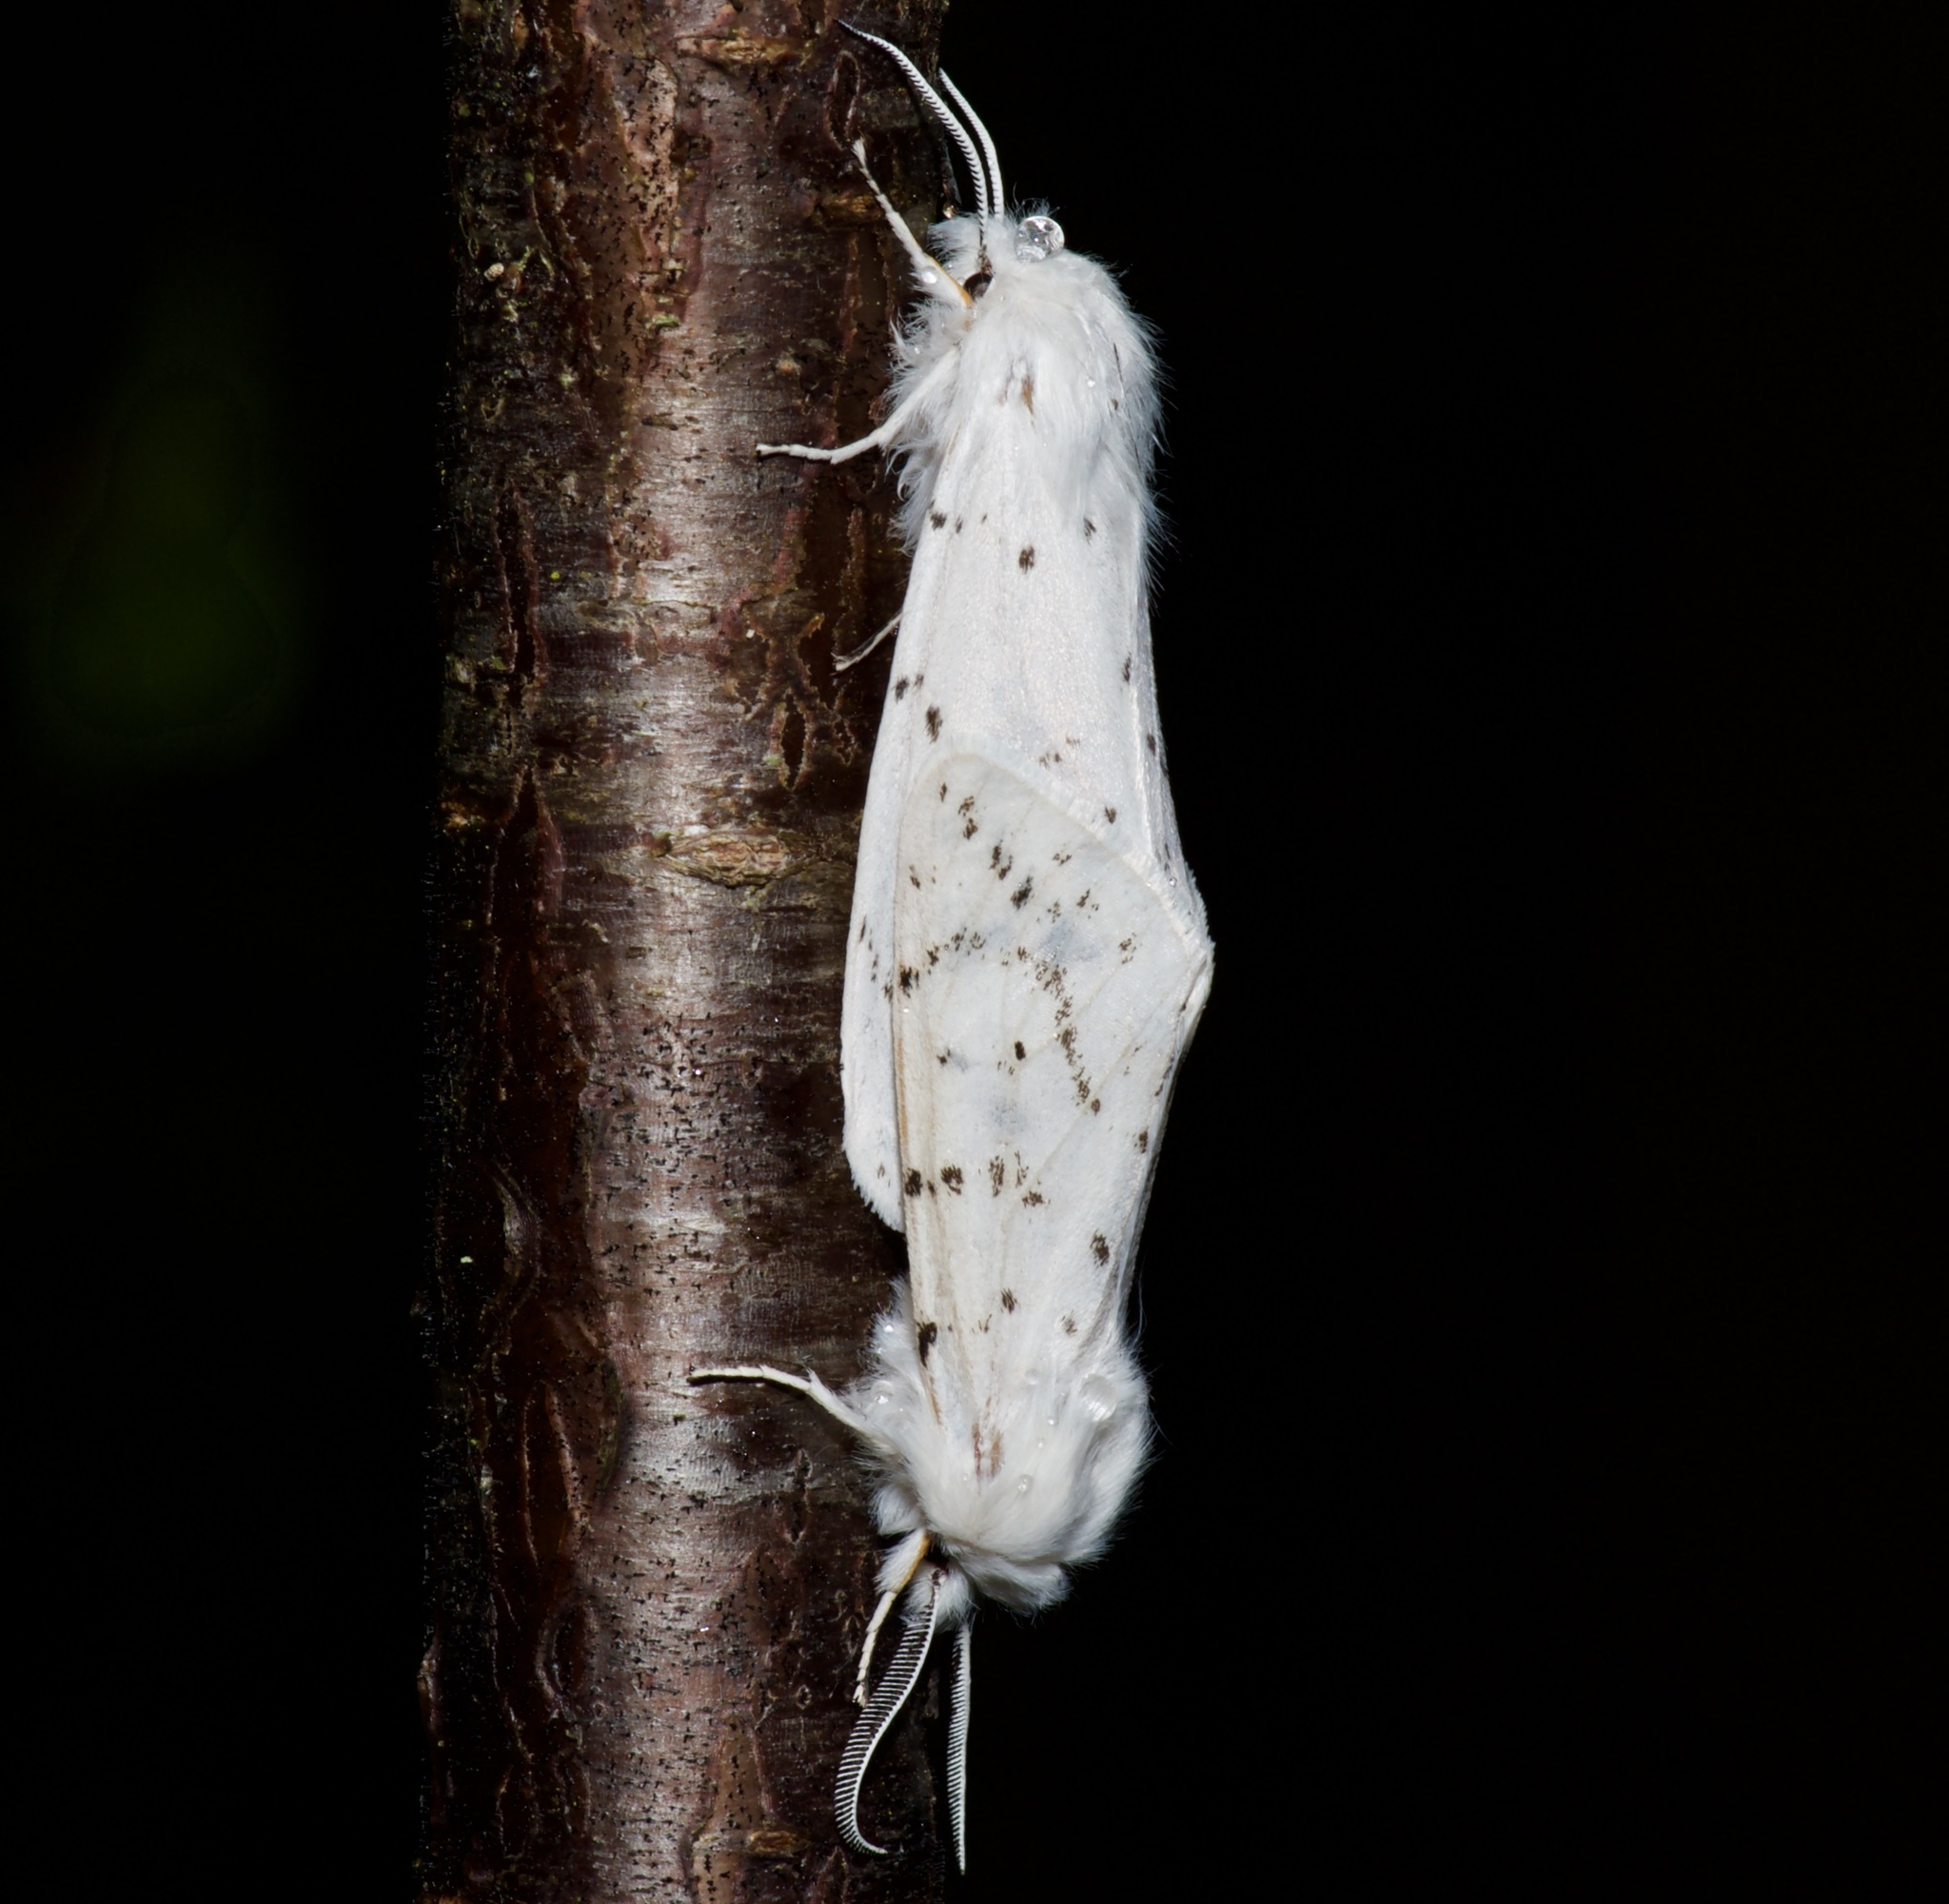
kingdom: Animalia
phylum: Arthropoda
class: Insecta
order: Lepidoptera
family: Erebidae
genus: Spilosoma
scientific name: Spilosoma dubia
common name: Dubious tiger moth
